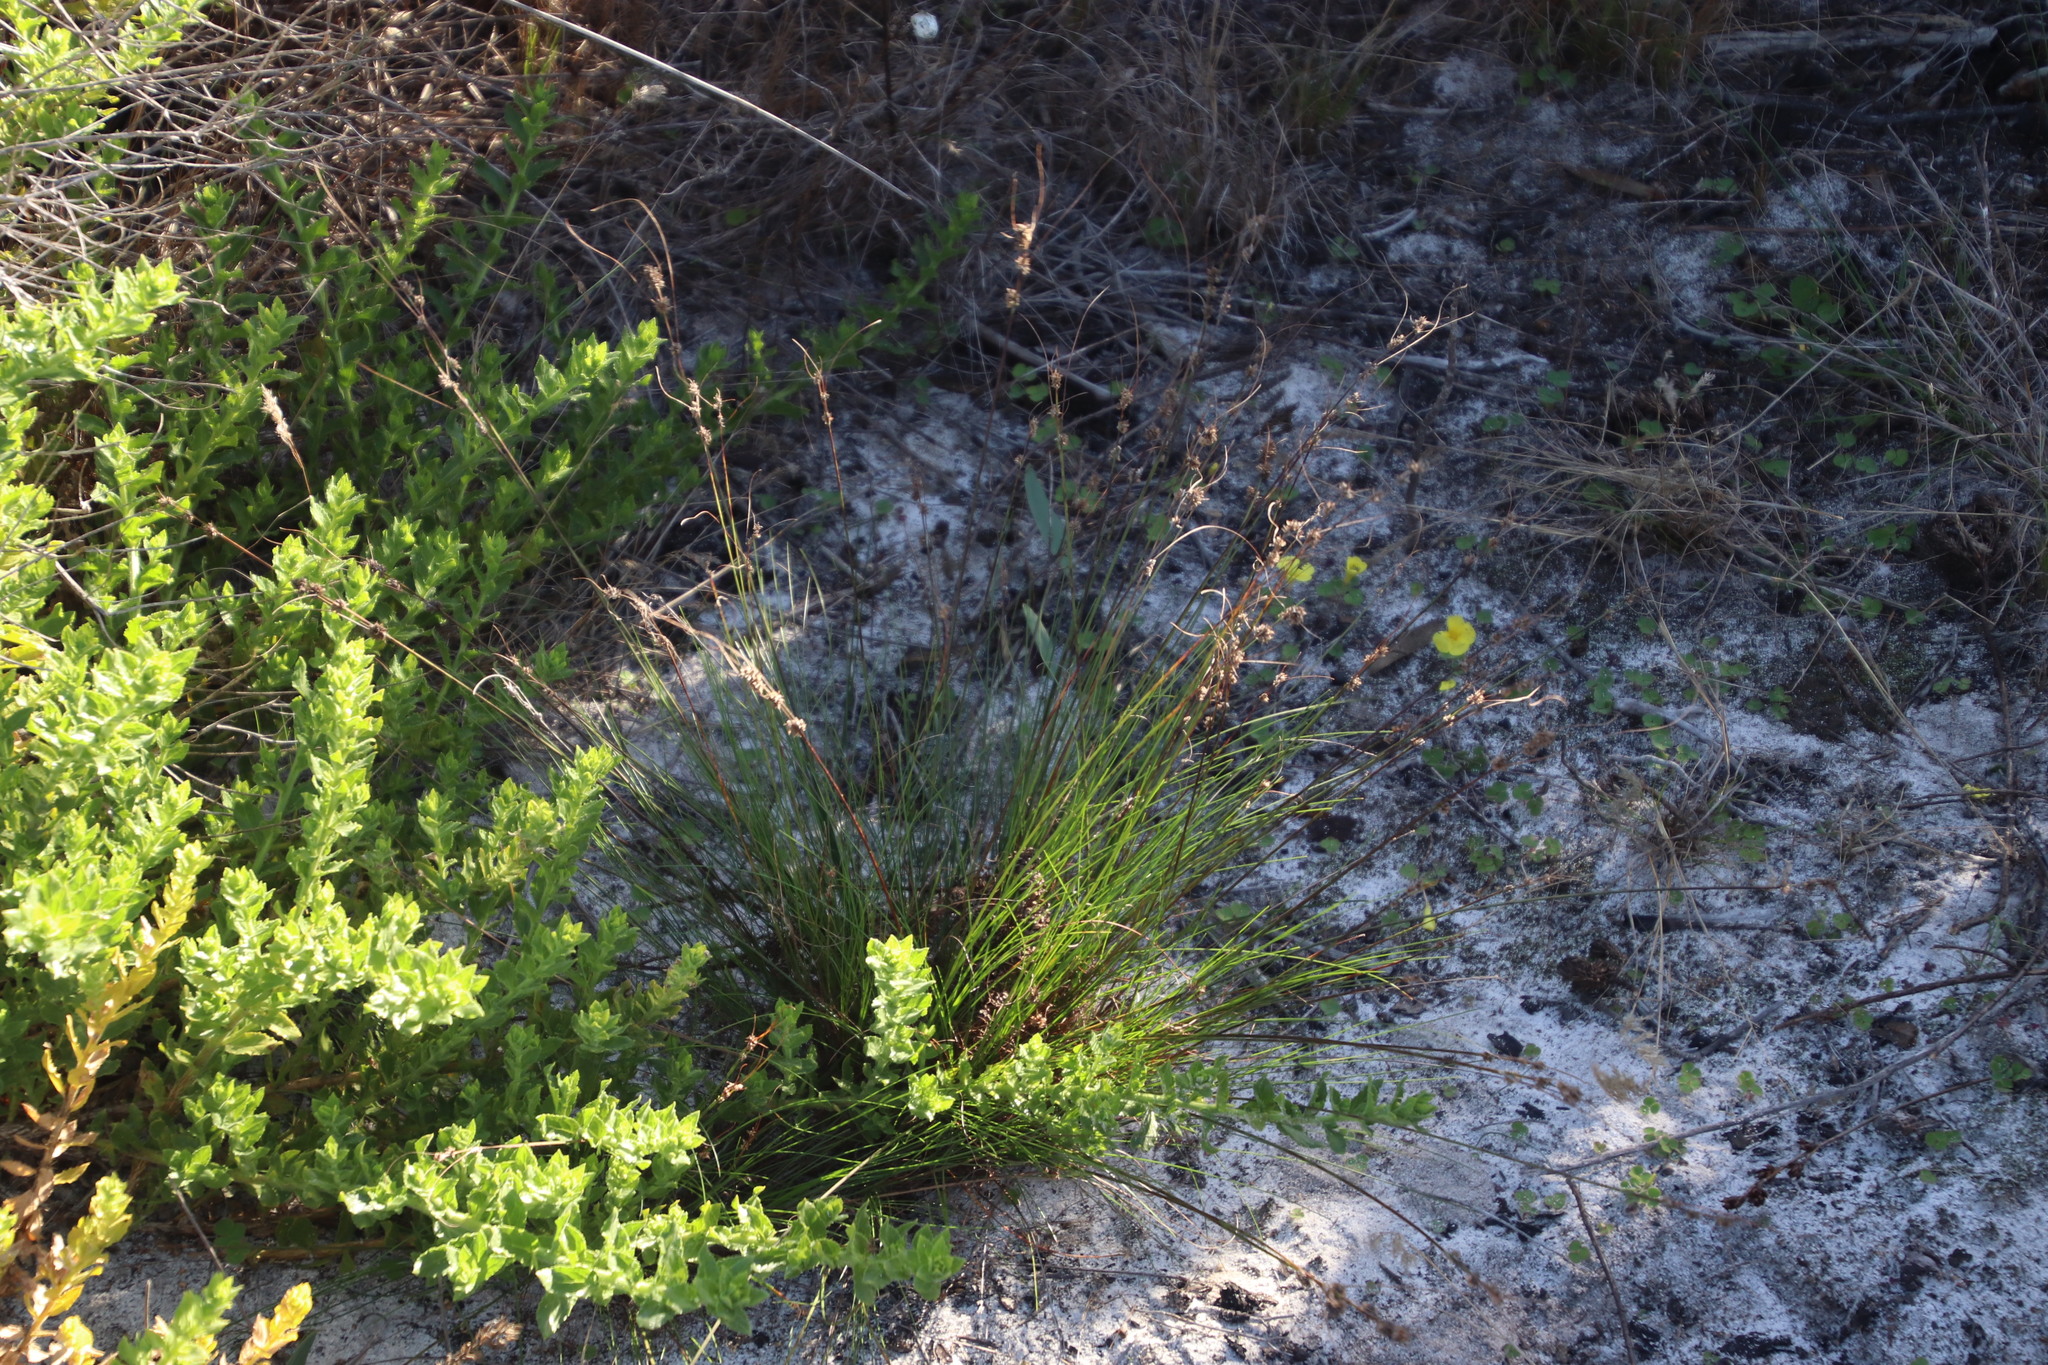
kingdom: Plantae
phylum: Tracheophyta
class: Liliopsida
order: Poales
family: Cyperaceae
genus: Ficinia
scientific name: Ficinia bulbosa
